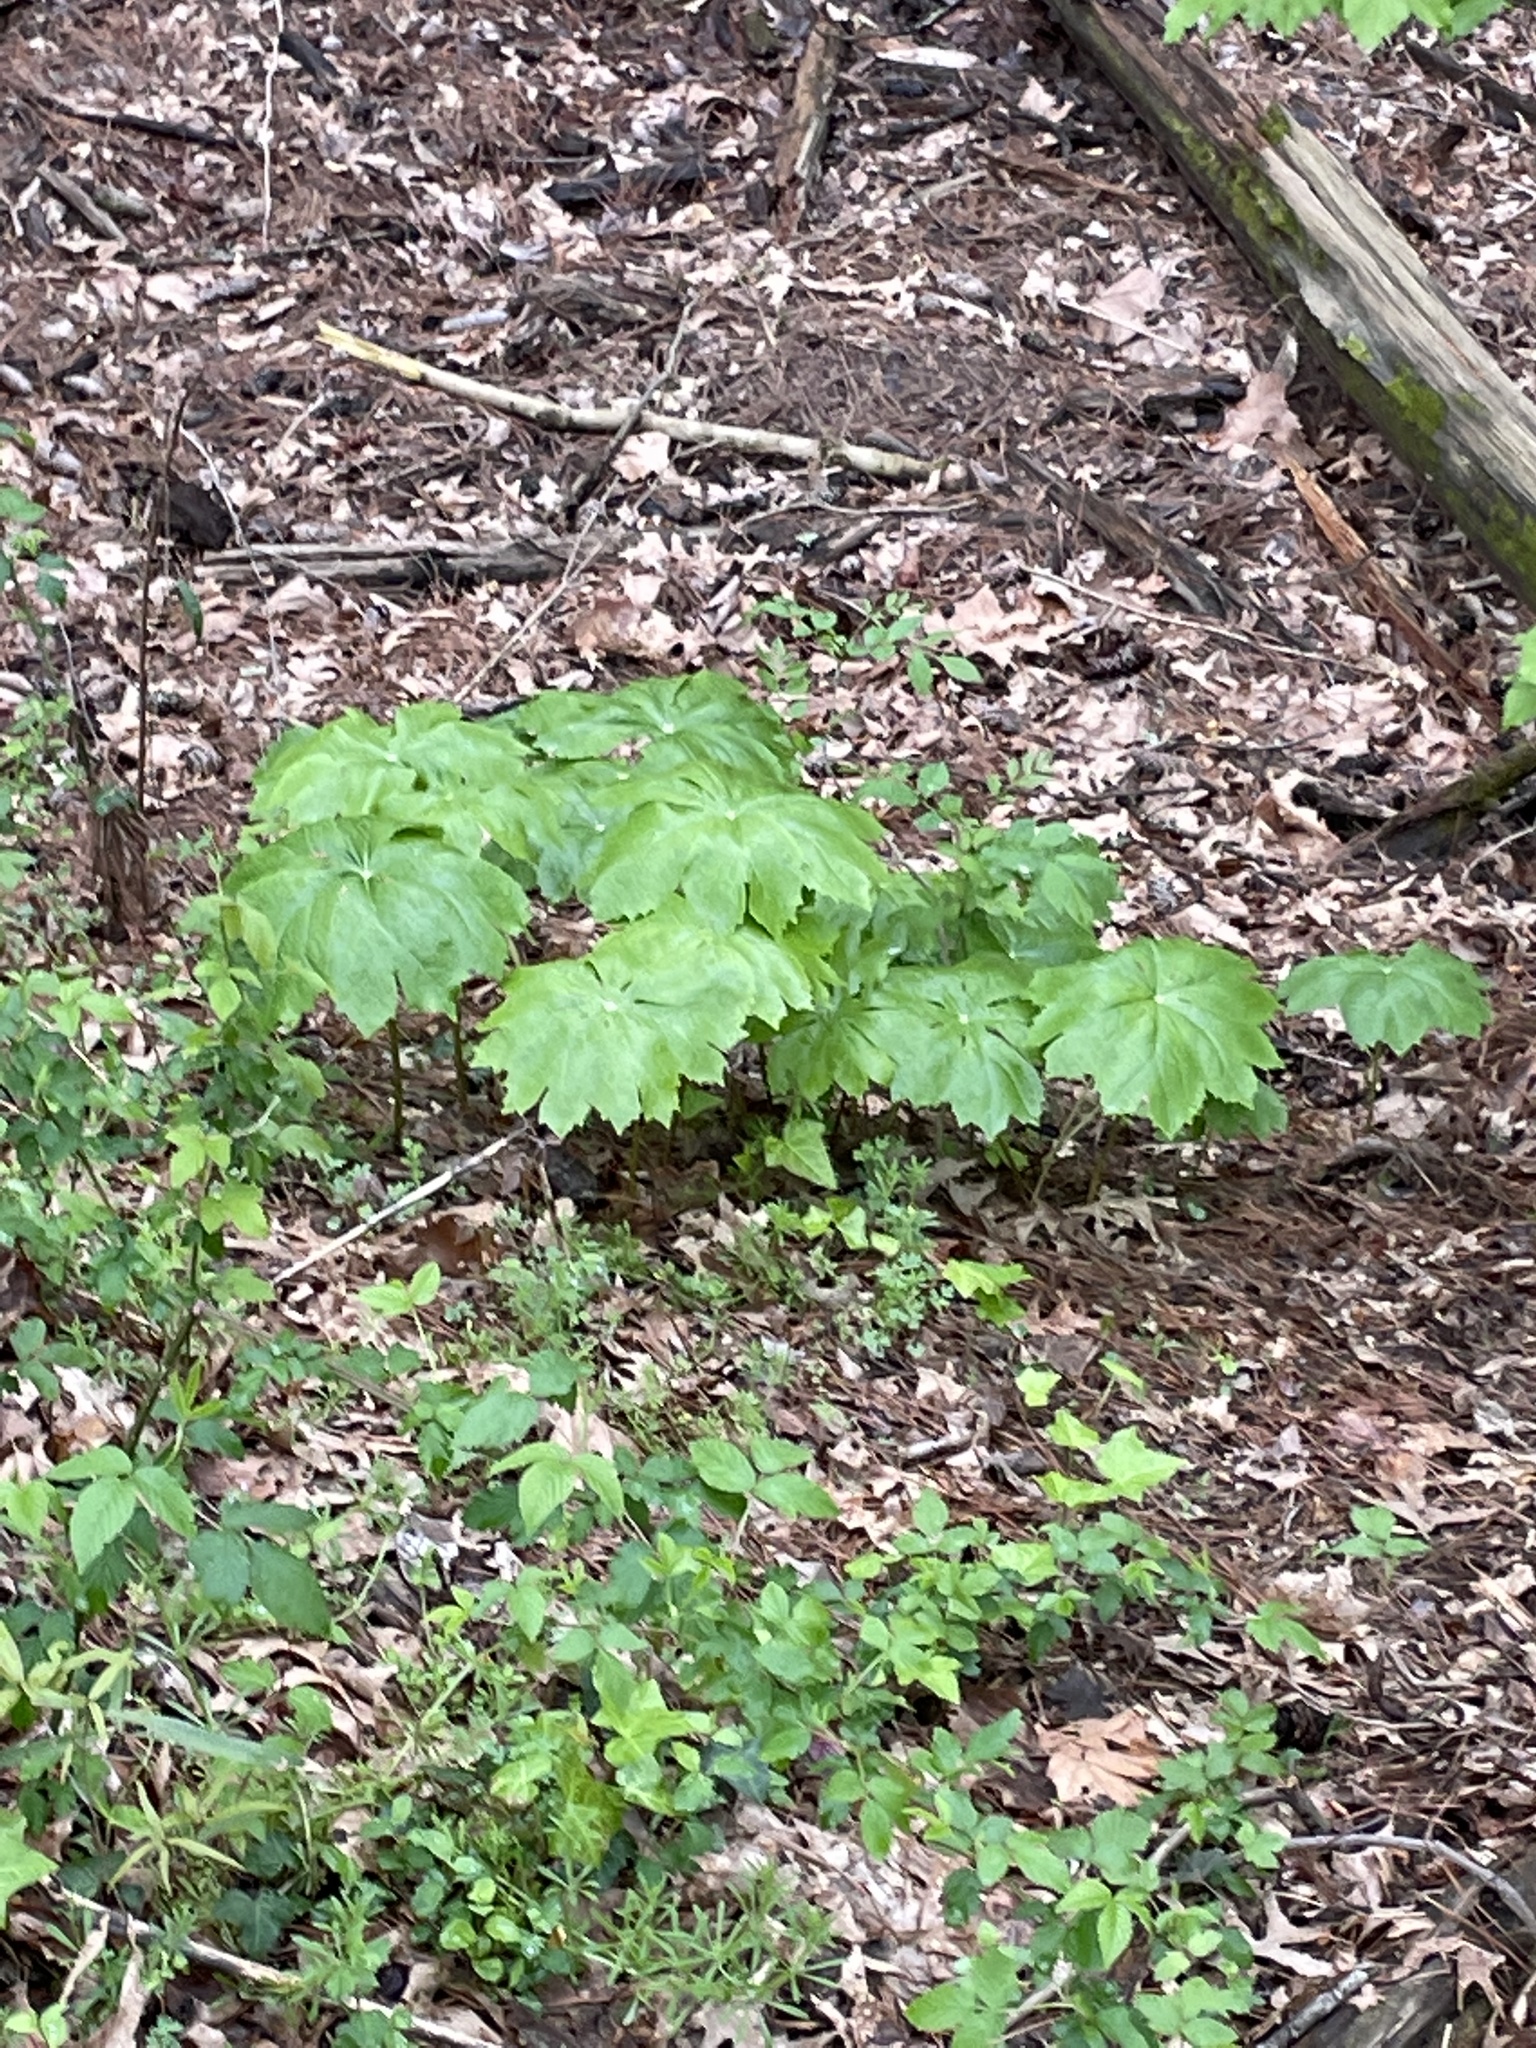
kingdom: Plantae
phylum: Tracheophyta
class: Magnoliopsida
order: Ranunculales
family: Berberidaceae
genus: Podophyllum
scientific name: Podophyllum peltatum
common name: Wild mandrake
